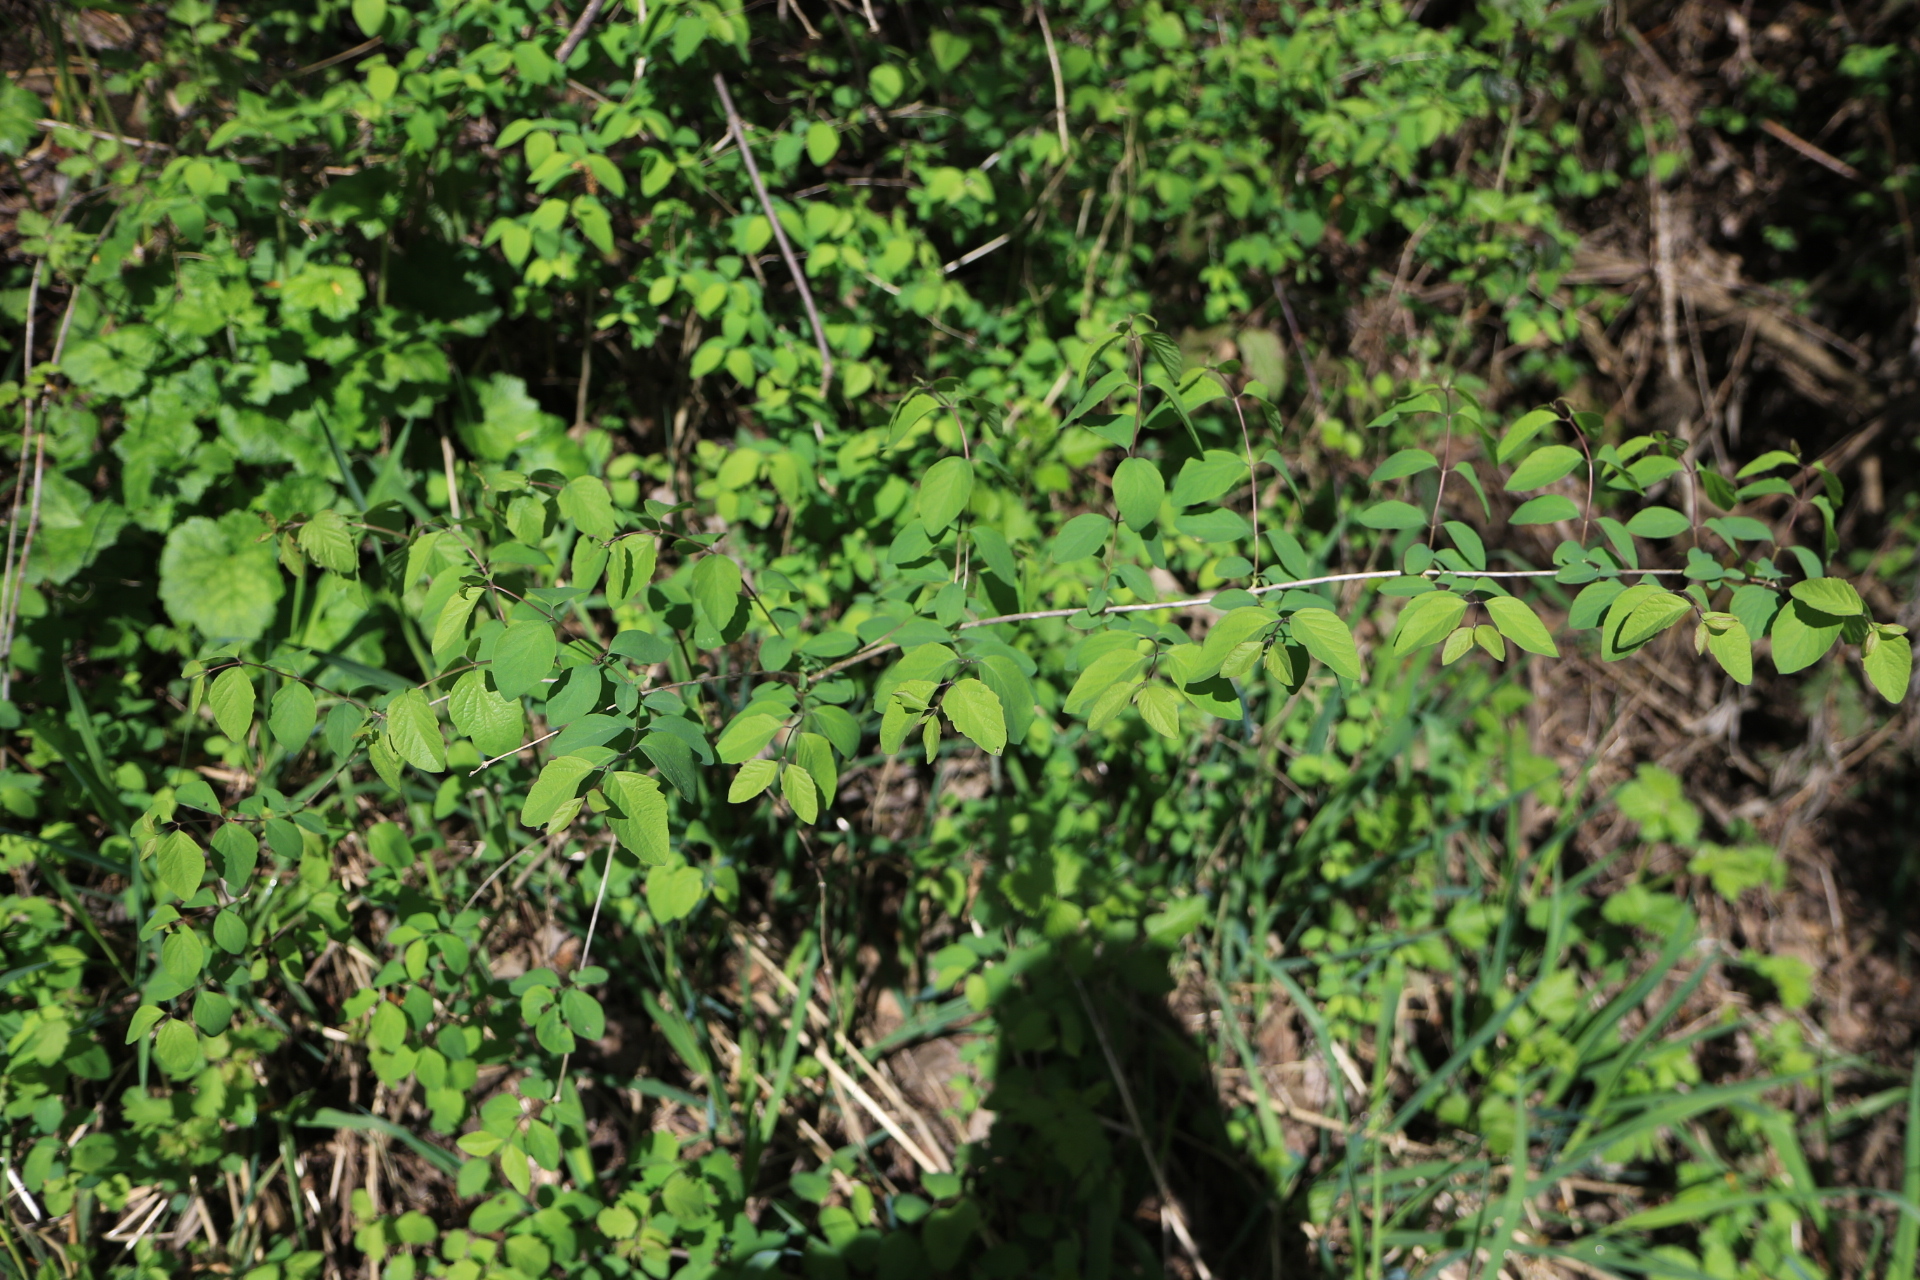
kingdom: Plantae
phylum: Tracheophyta
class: Magnoliopsida
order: Dipsacales
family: Caprifoliaceae
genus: Symphoricarpos
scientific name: Symphoricarpos albus
